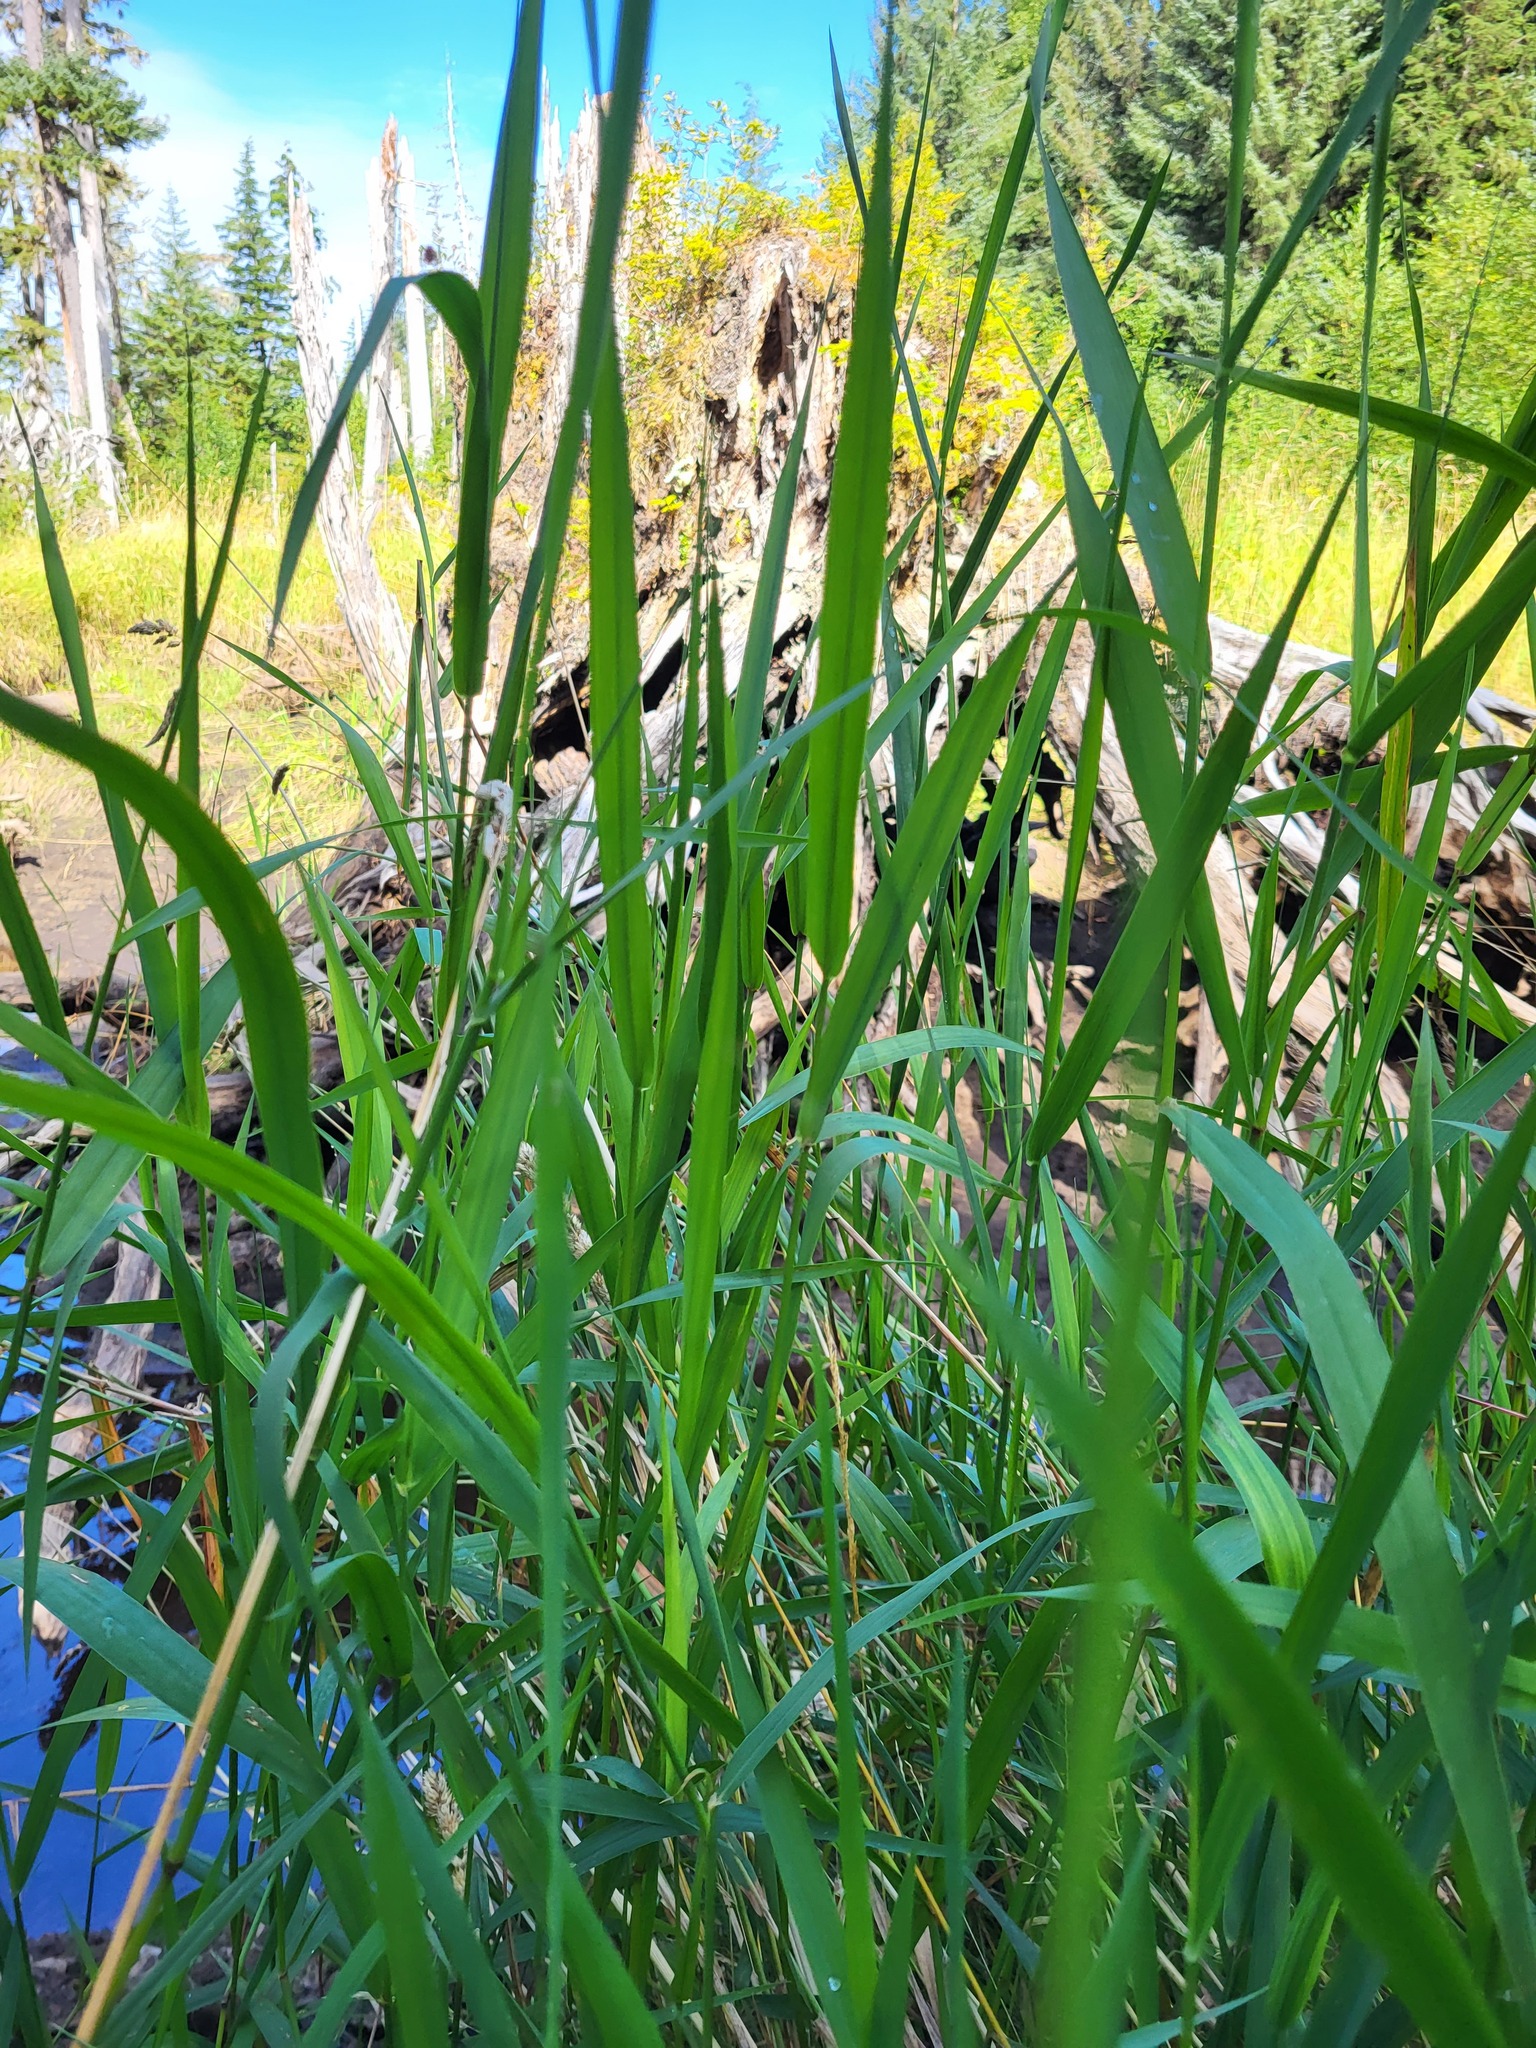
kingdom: Plantae
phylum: Tracheophyta
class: Liliopsida
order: Poales
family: Poaceae
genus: Phalaris
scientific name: Phalaris arundinacea
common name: Reed canary-grass
